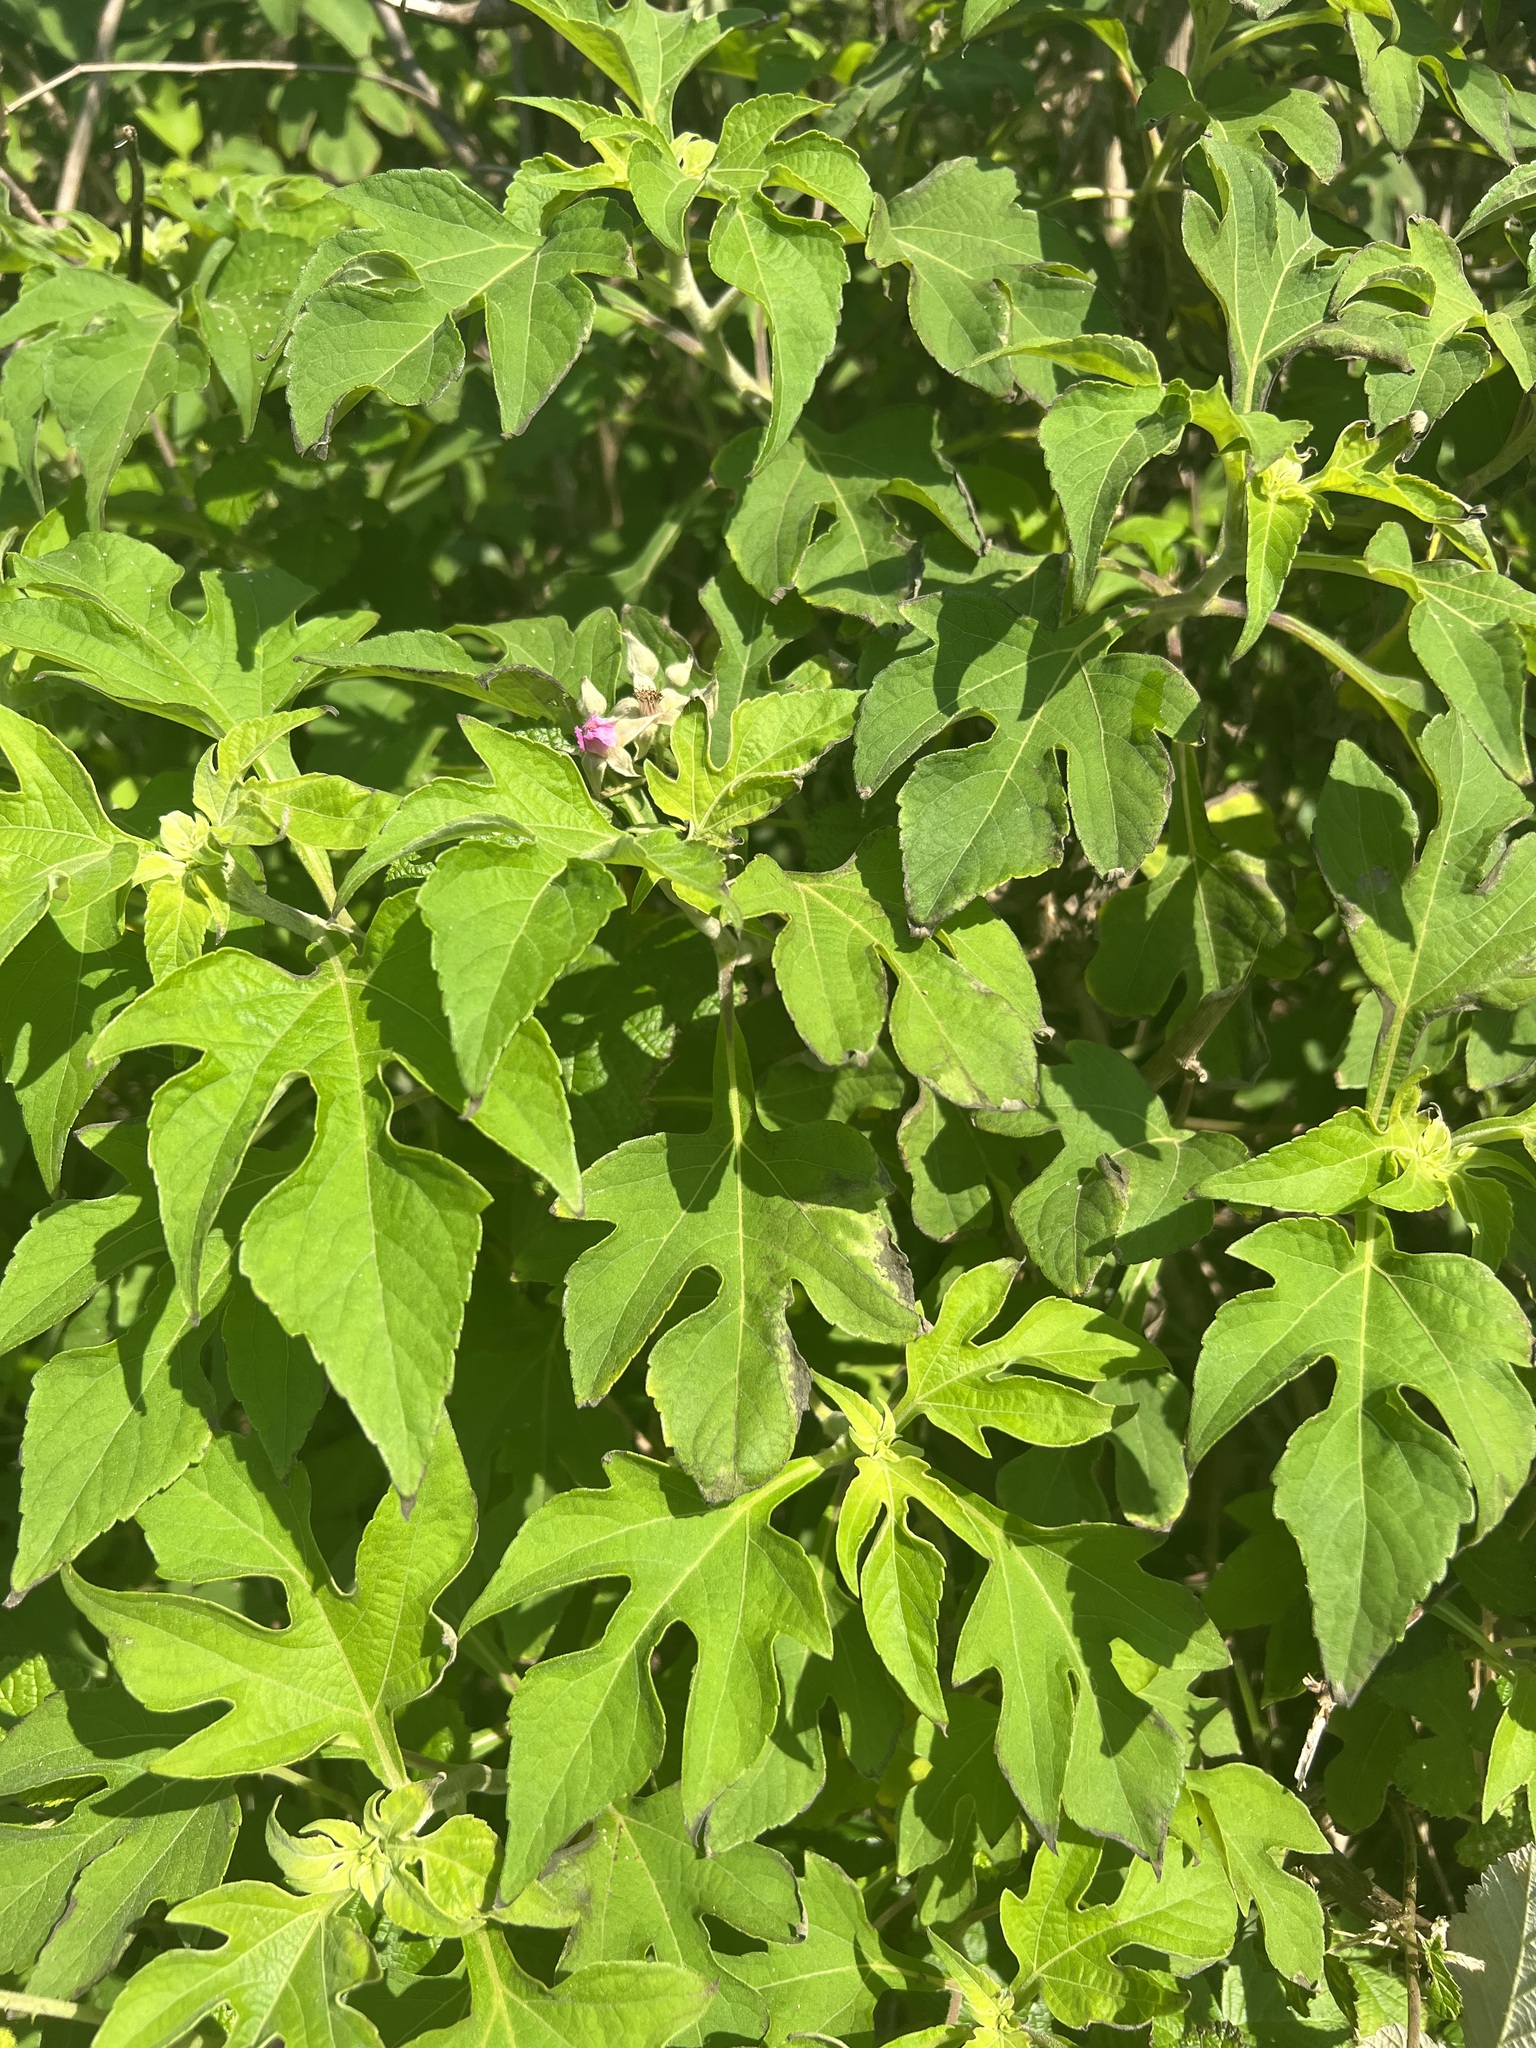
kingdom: Plantae
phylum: Tracheophyta
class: Magnoliopsida
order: Asterales
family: Asteraceae
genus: Tithonia
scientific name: Tithonia diversifolia
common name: Tree marigold
